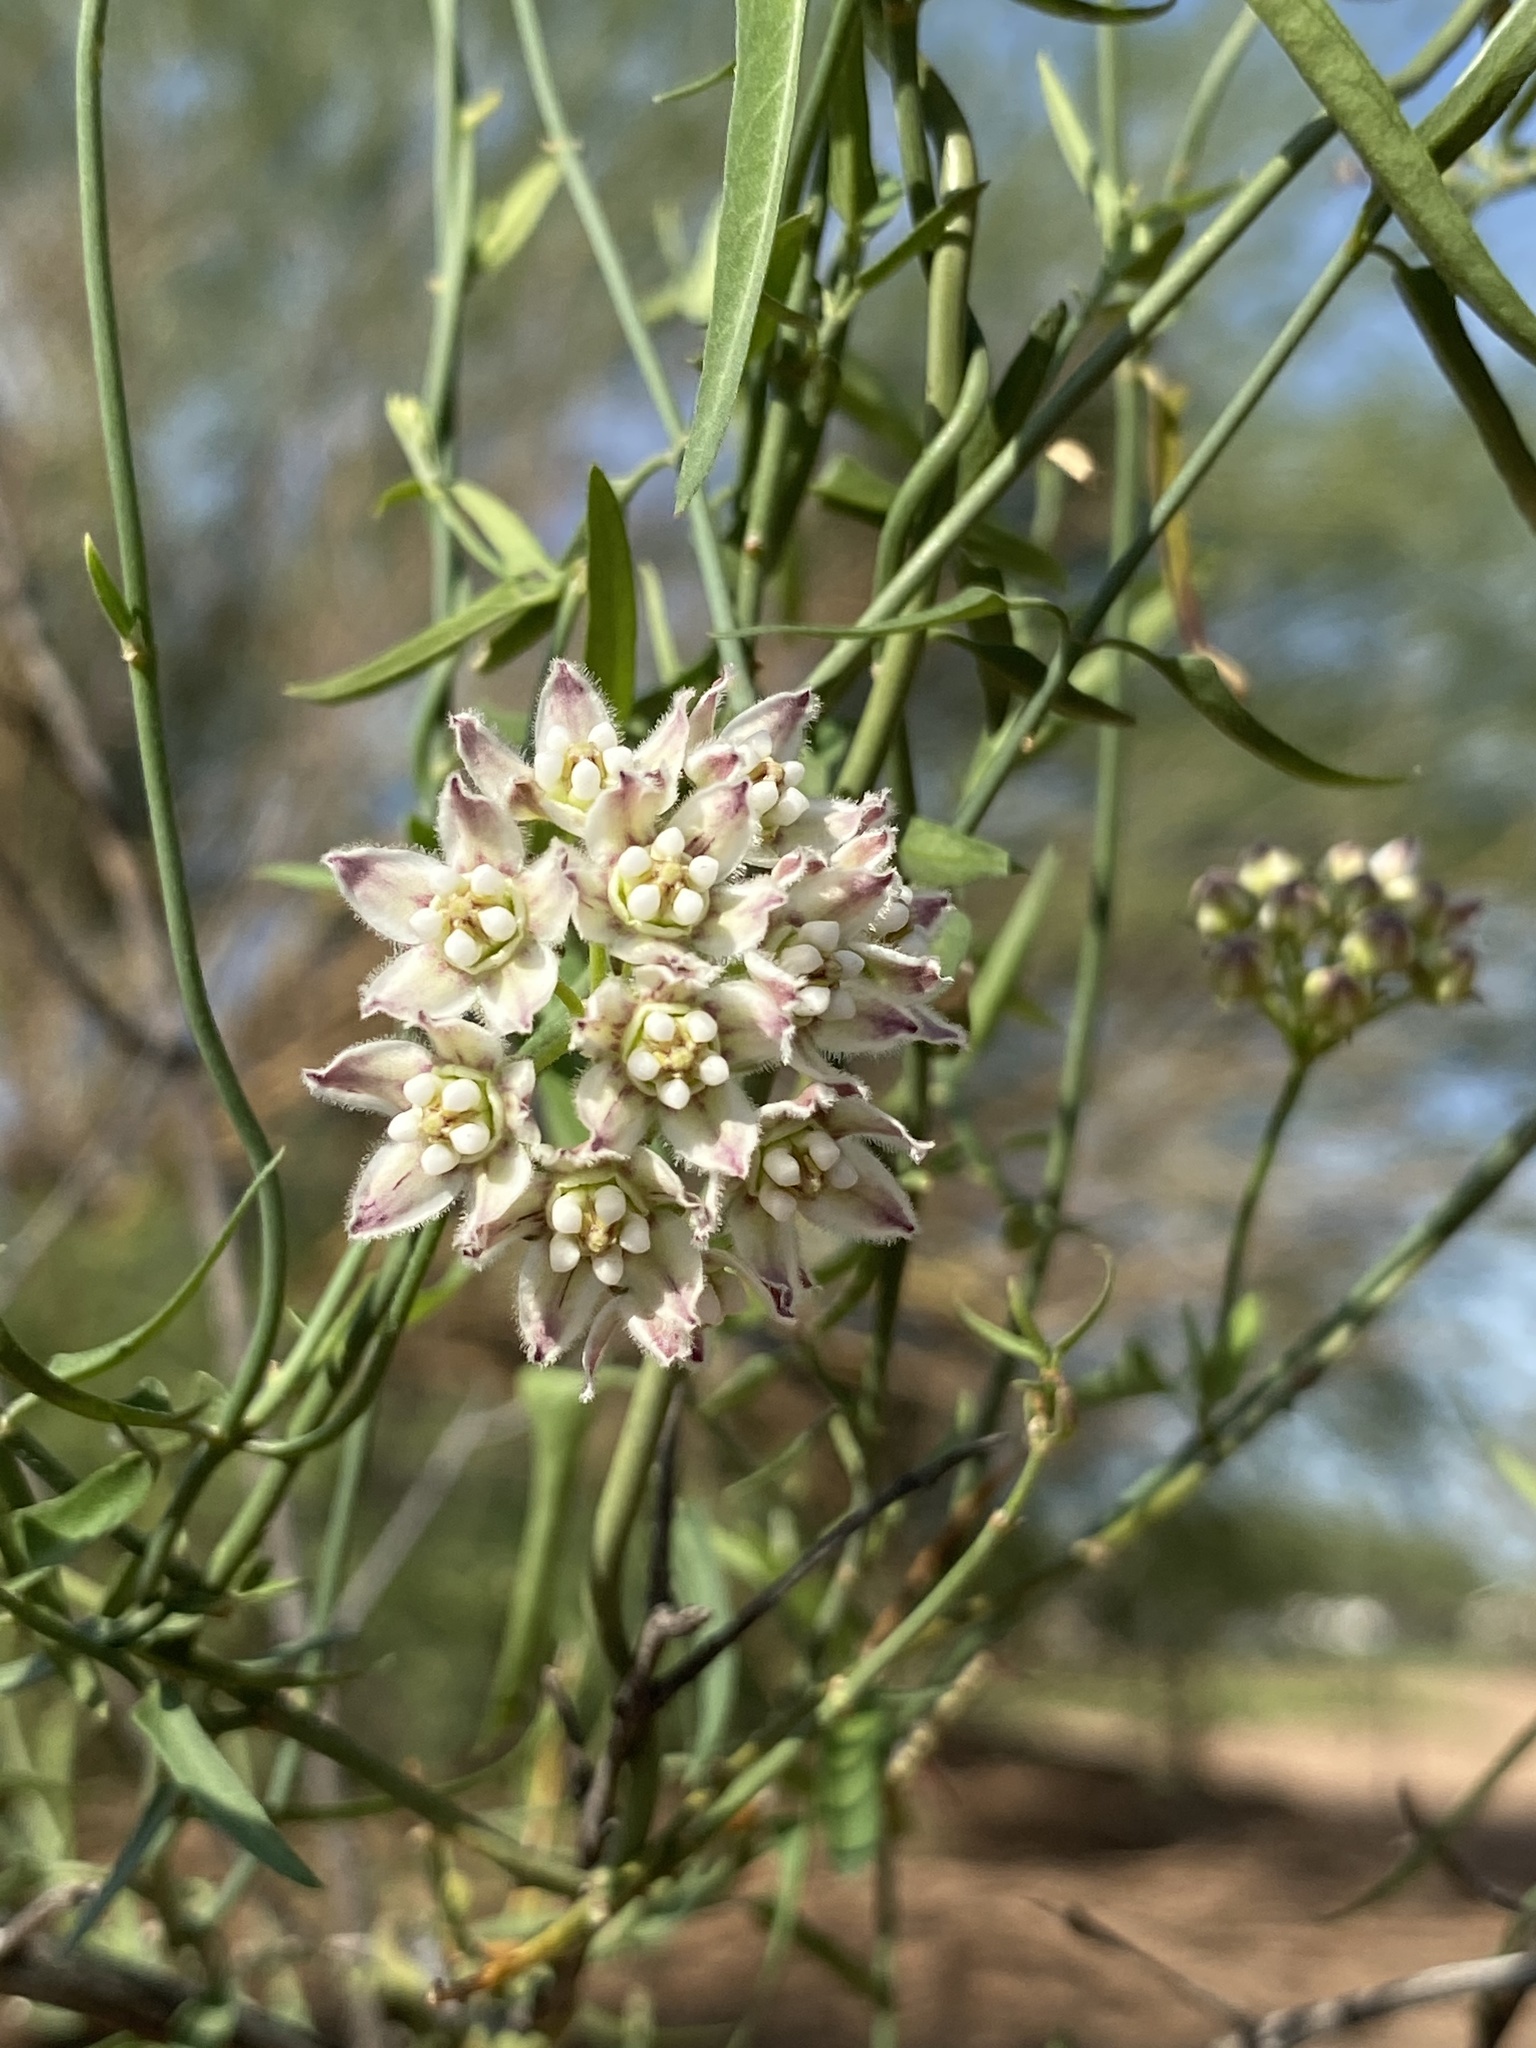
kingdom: Plantae
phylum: Tracheophyta
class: Magnoliopsida
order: Gentianales
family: Apocynaceae
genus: Funastrum
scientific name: Funastrum heterophyllum
